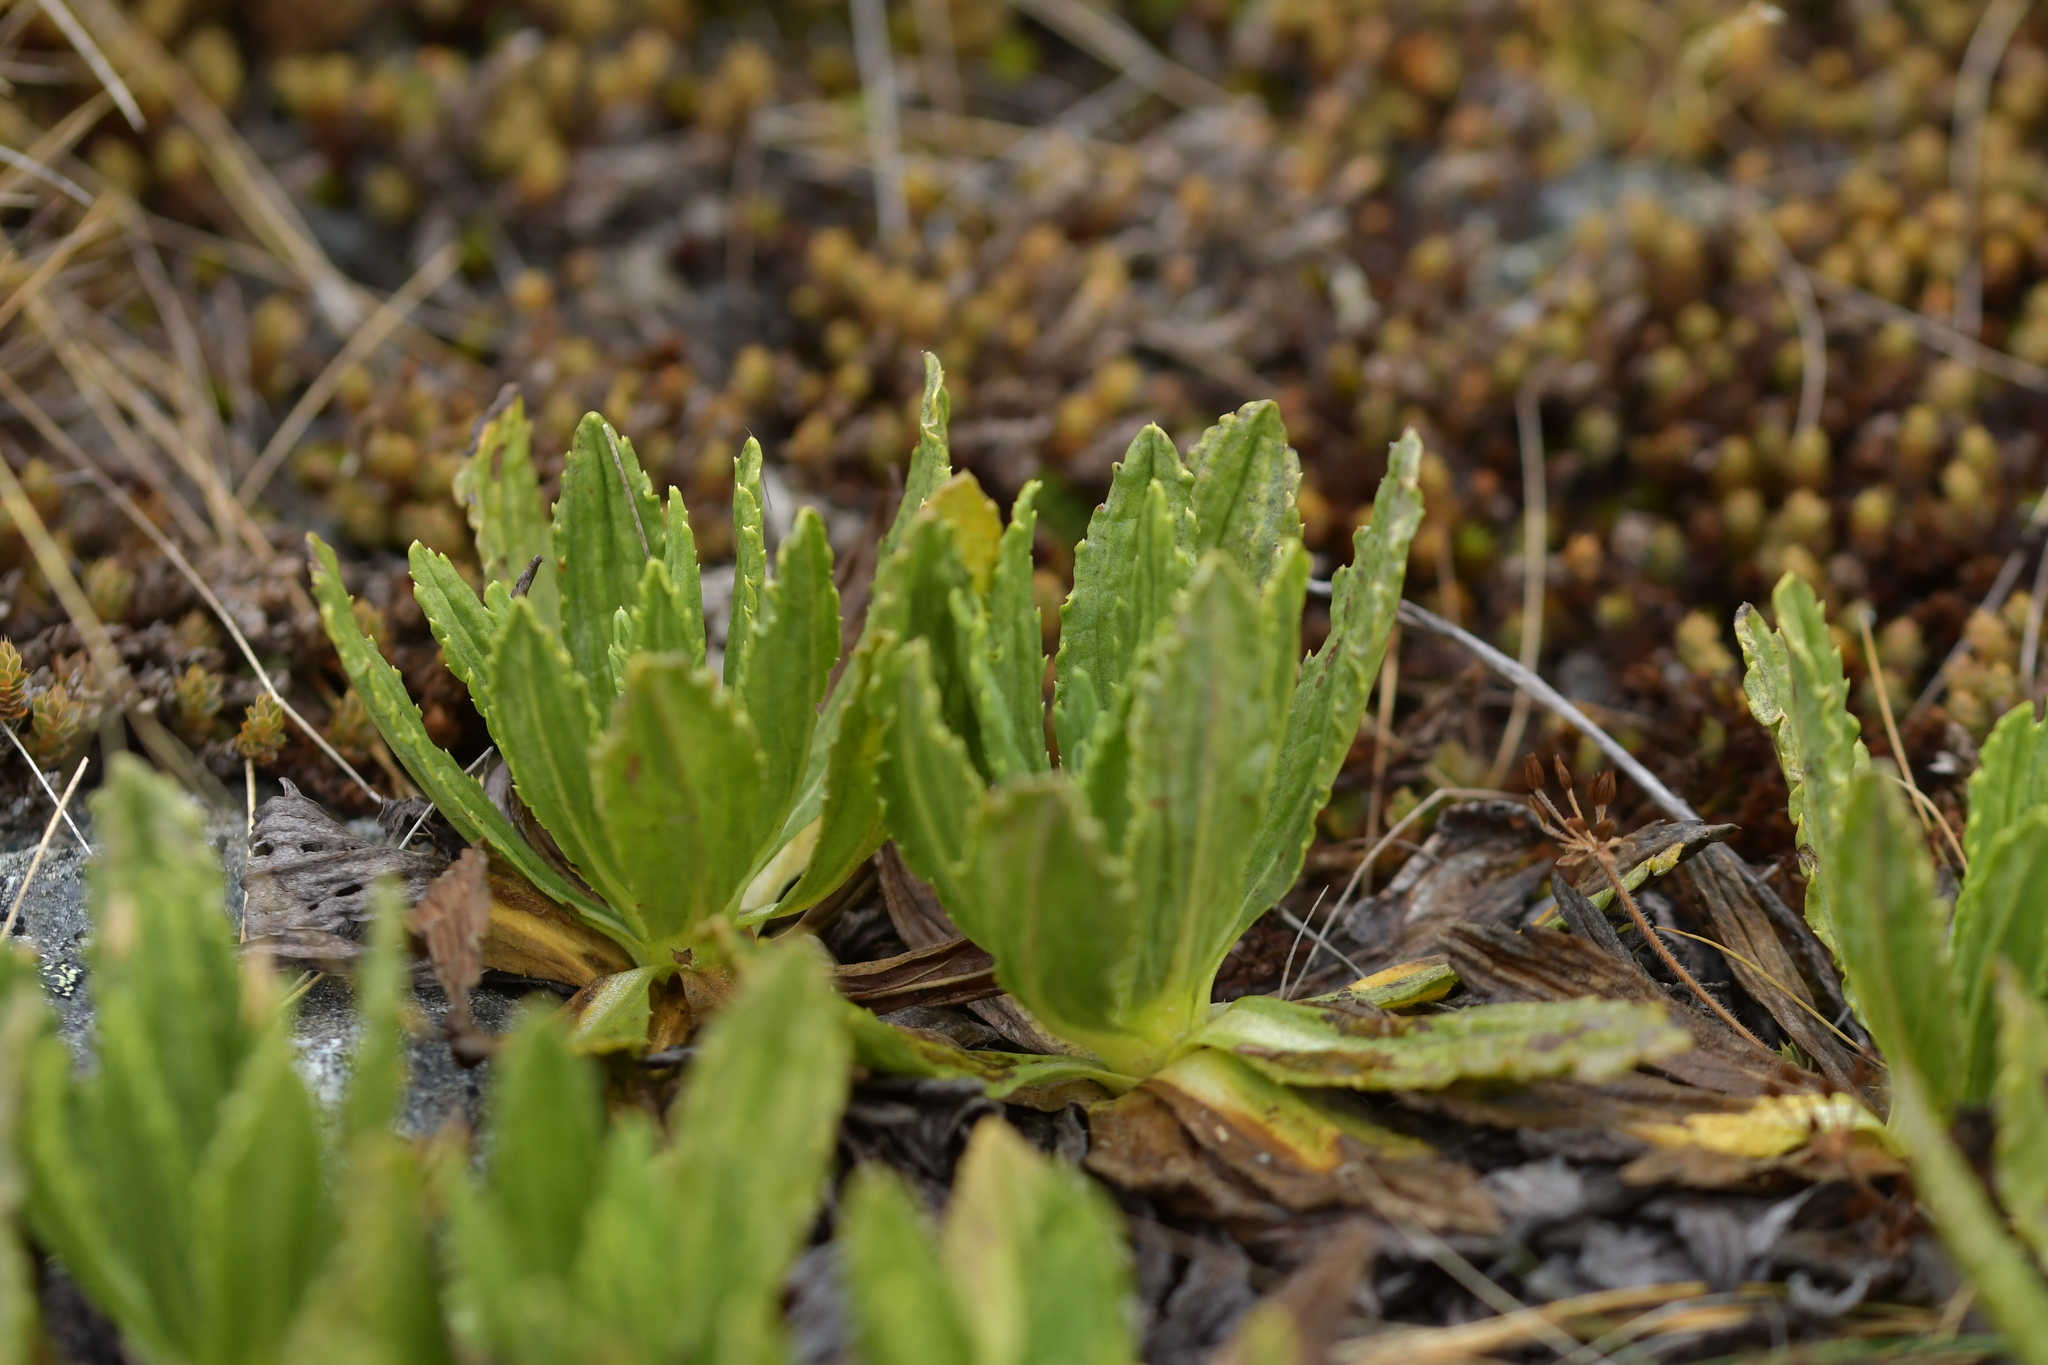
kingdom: Plantae
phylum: Tracheophyta
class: Magnoliopsida
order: Asterales
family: Asteraceae
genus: Celmisia
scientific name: Celmisia prorepens
